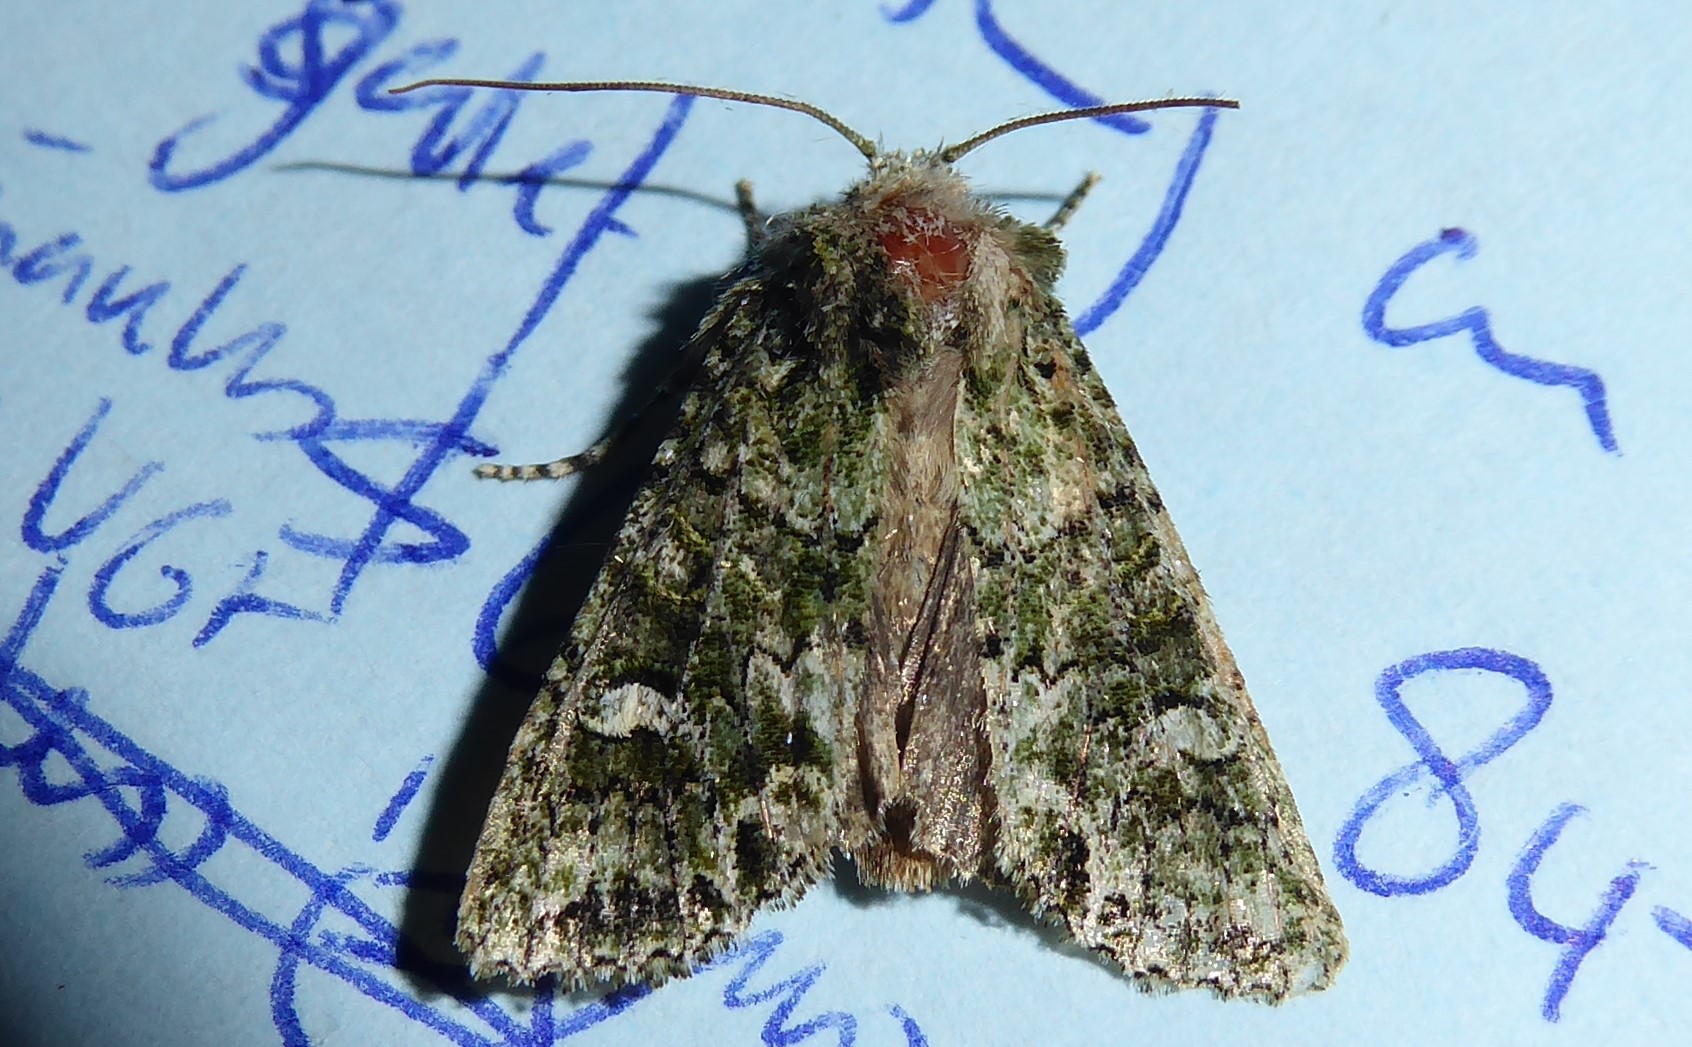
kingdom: Animalia
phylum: Arthropoda
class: Insecta
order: Lepidoptera
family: Noctuidae
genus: Ichneutica
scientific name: Ichneutica
